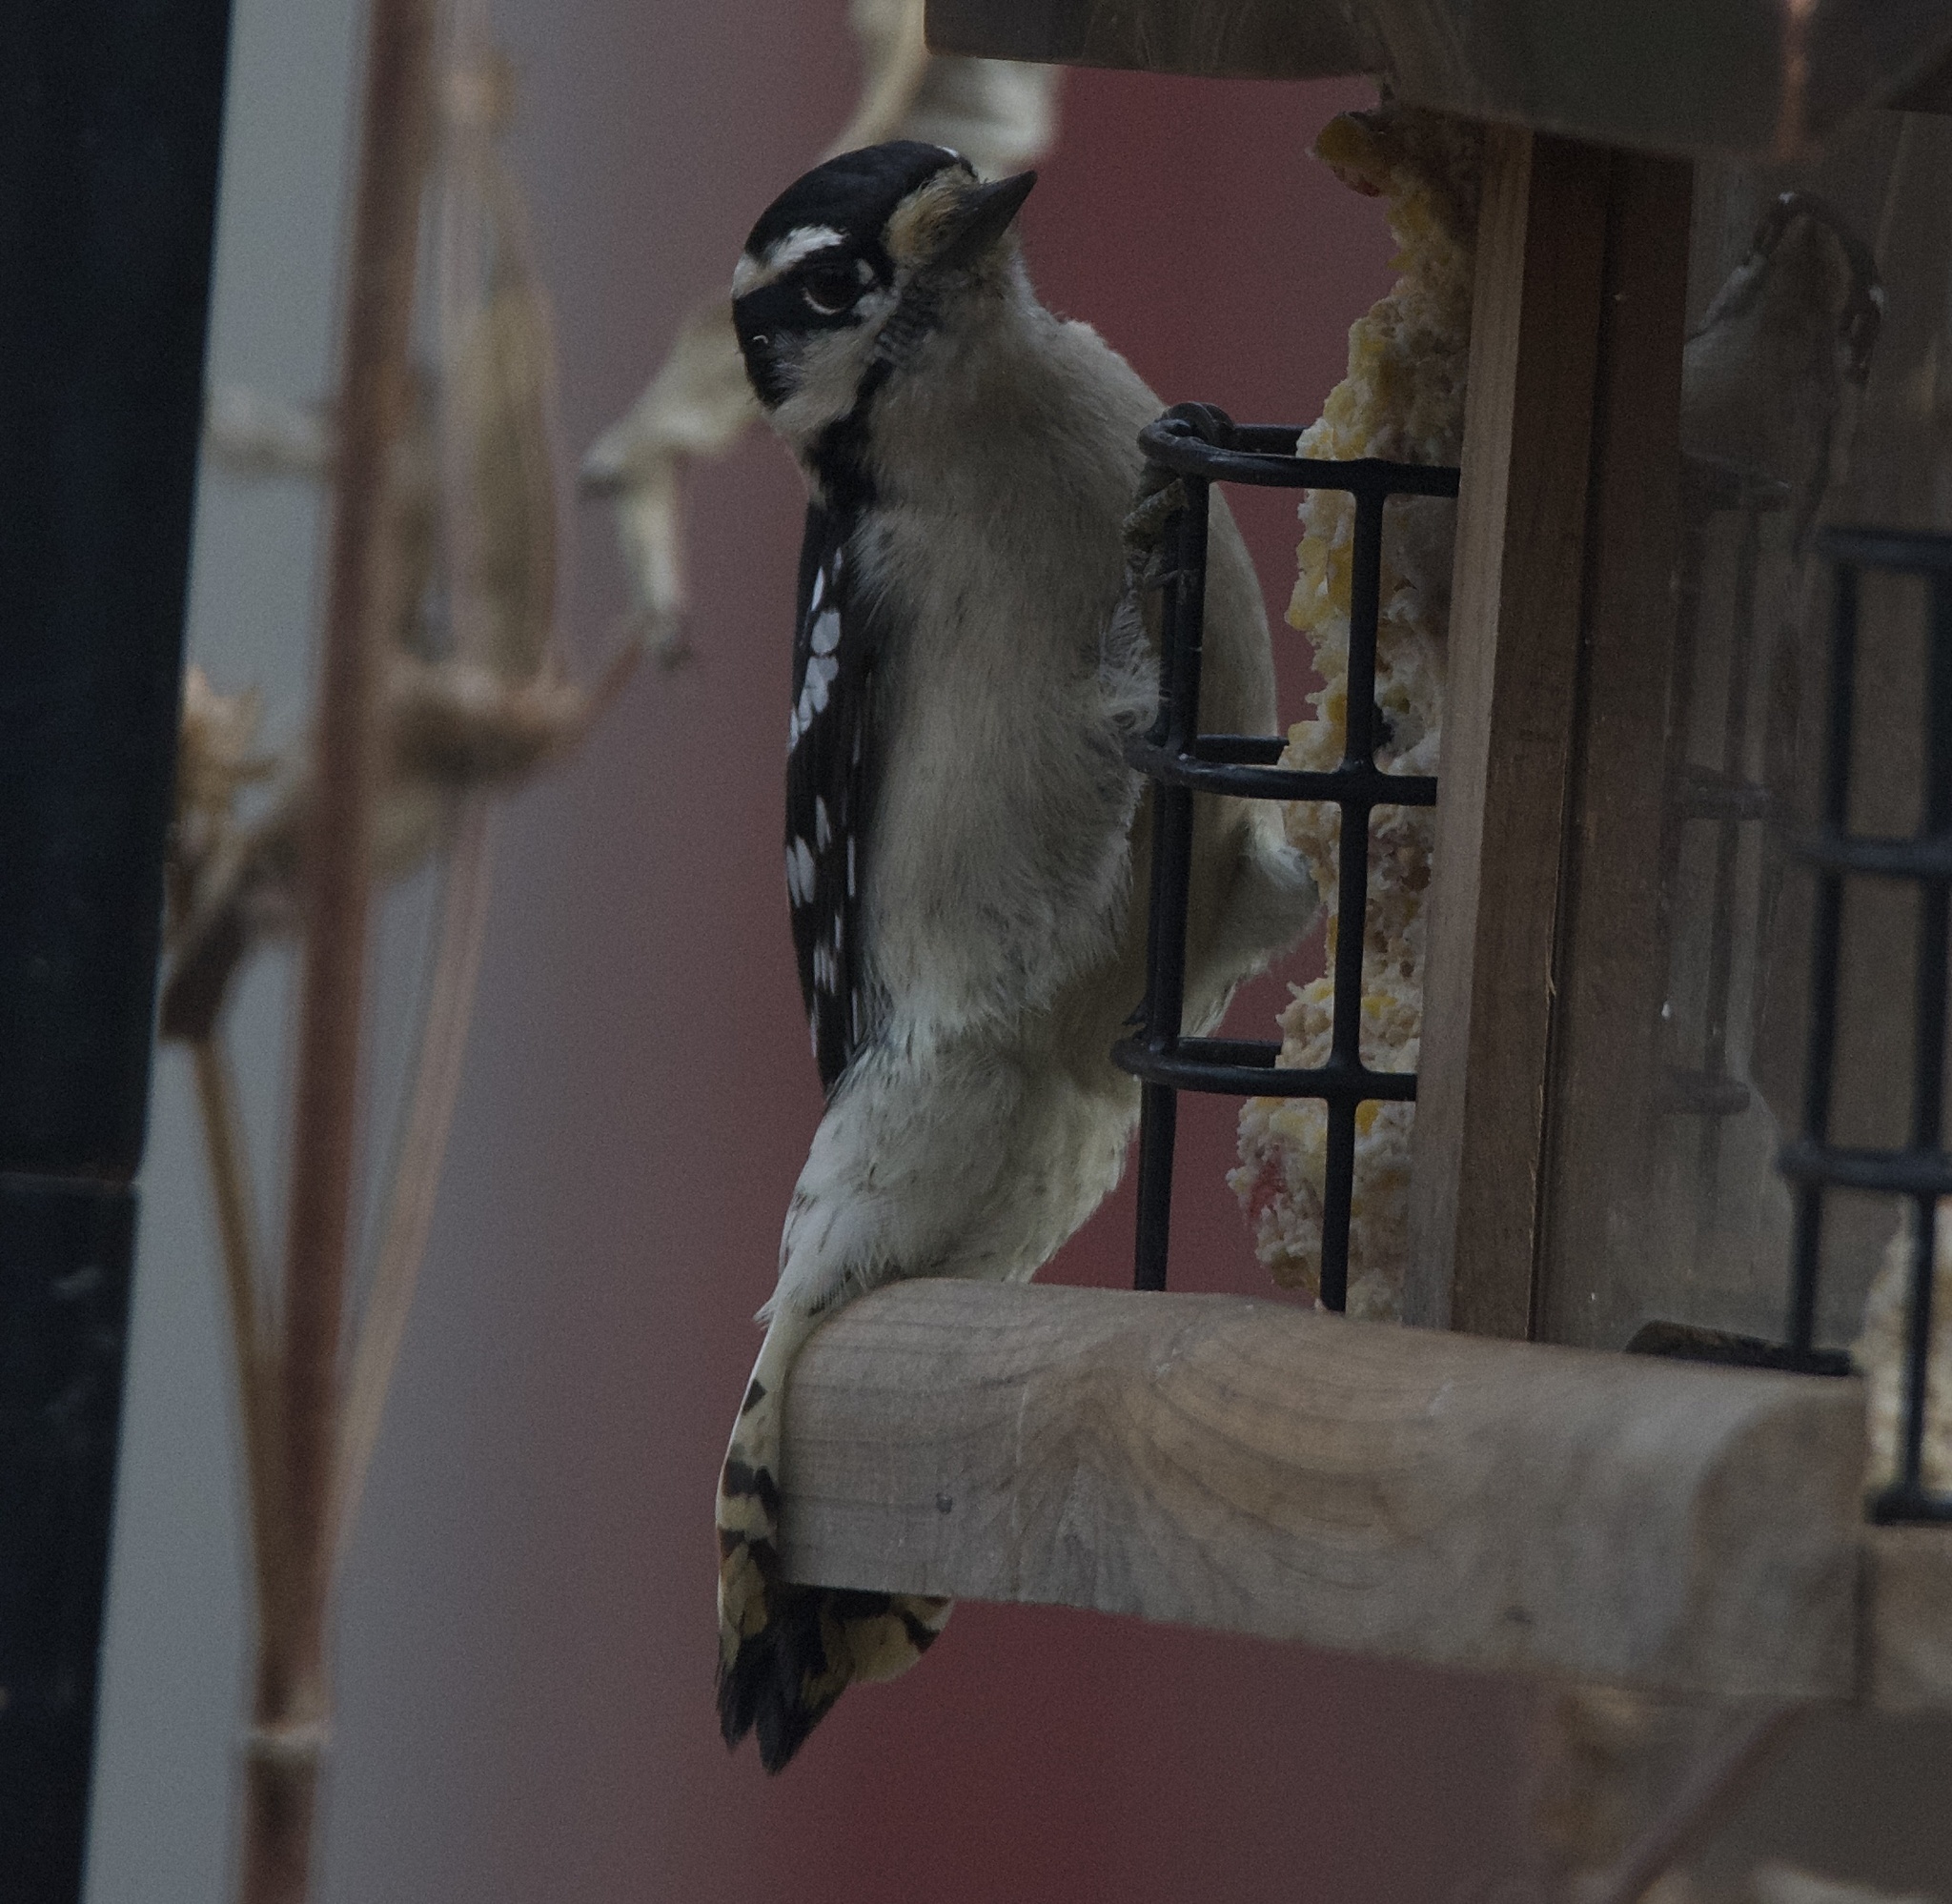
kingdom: Animalia
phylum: Chordata
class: Aves
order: Piciformes
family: Picidae
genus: Dryobates
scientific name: Dryobates pubescens
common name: Downy woodpecker
